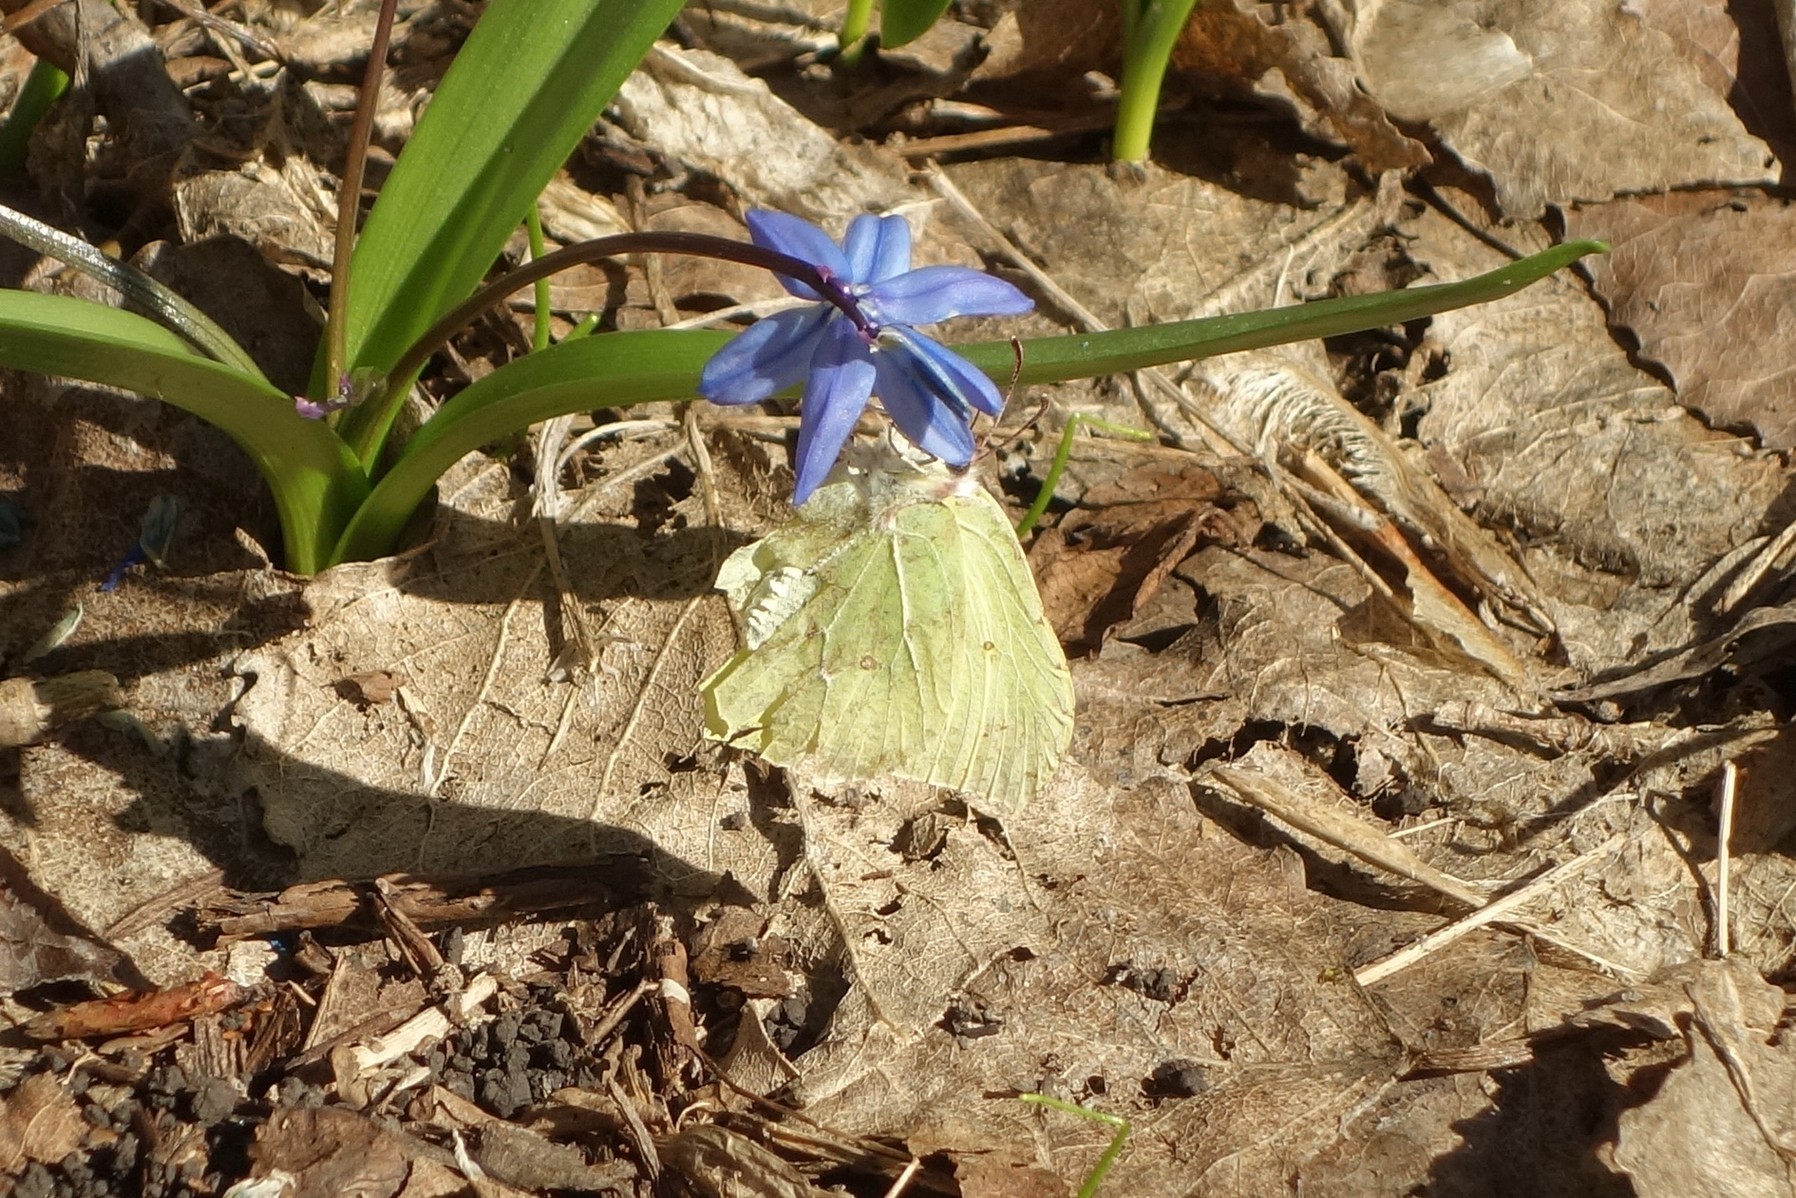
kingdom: Animalia
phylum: Arthropoda
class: Insecta
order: Lepidoptera
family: Pieridae
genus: Gonepteryx
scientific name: Gonepteryx rhamni
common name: Brimstone
